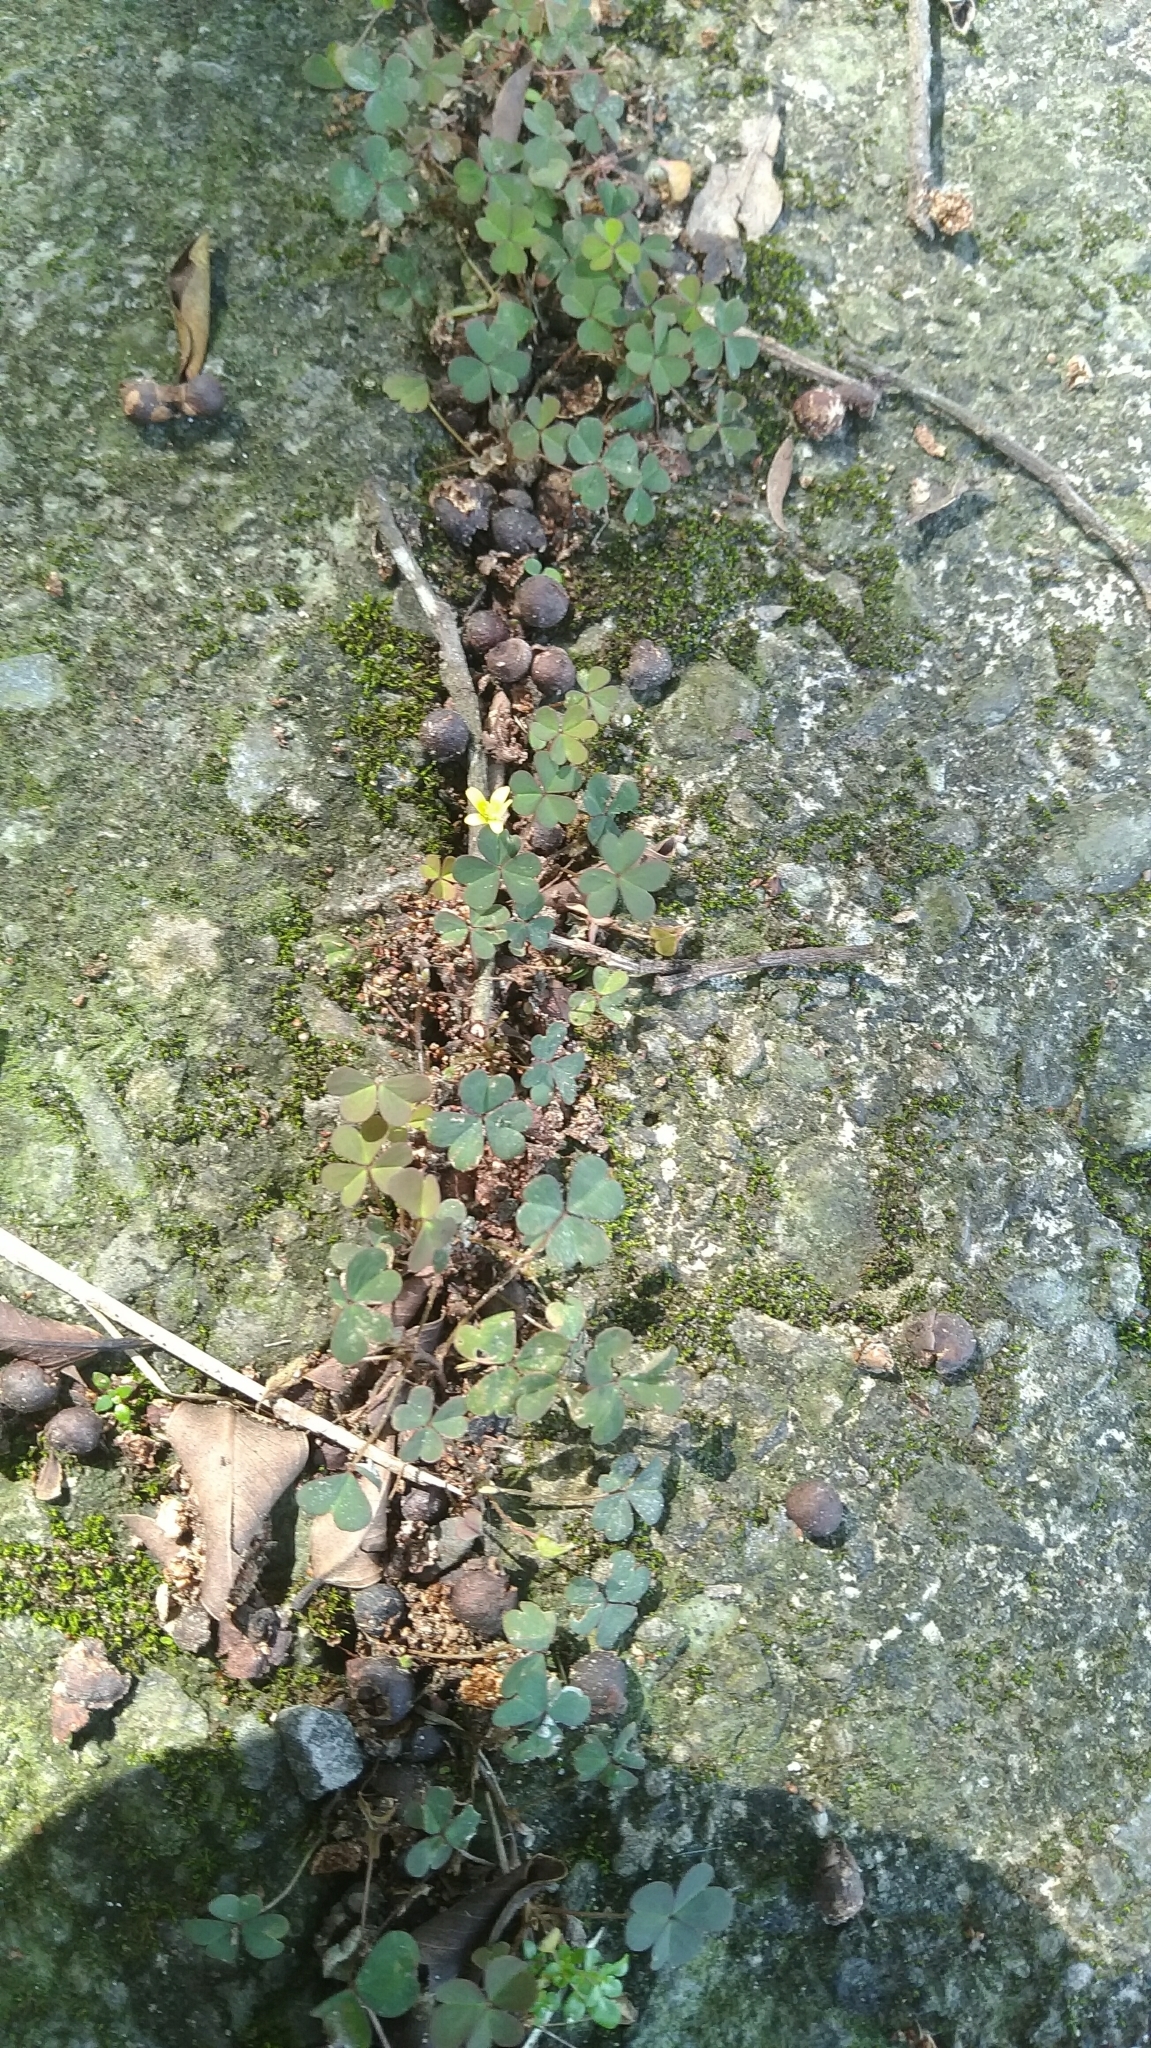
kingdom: Plantae
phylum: Tracheophyta
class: Magnoliopsida
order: Oxalidales
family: Oxalidaceae
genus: Oxalis
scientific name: Oxalis corniculata
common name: Procumbent yellow-sorrel
